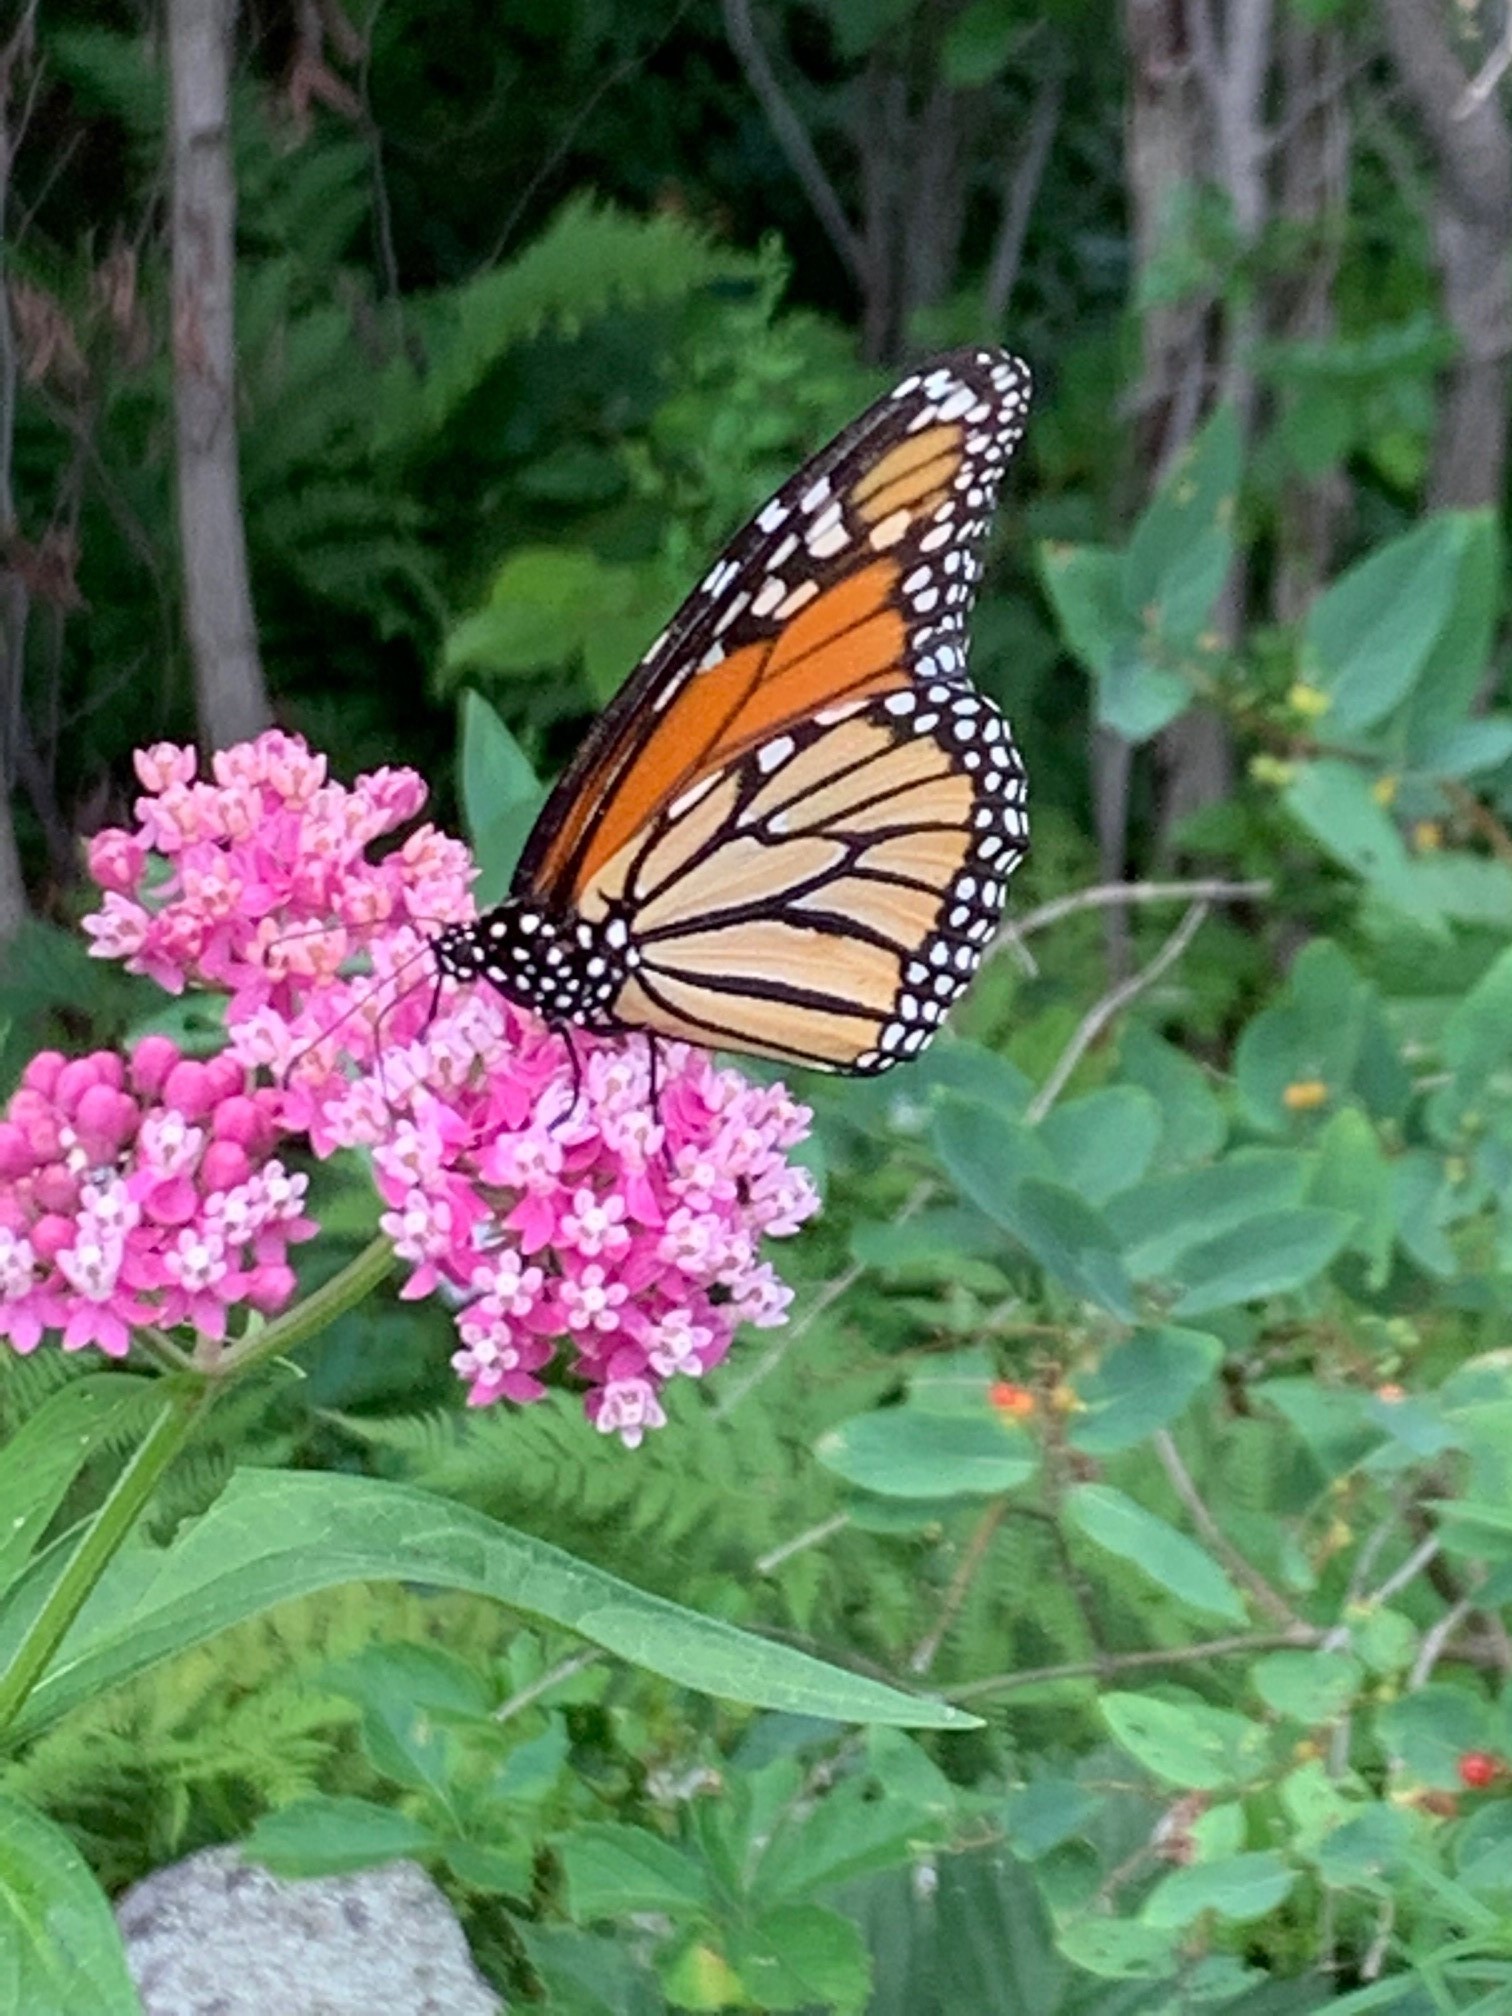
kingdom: Animalia
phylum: Arthropoda
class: Insecta
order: Lepidoptera
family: Nymphalidae
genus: Danaus
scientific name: Danaus plexippus
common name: Monarch
